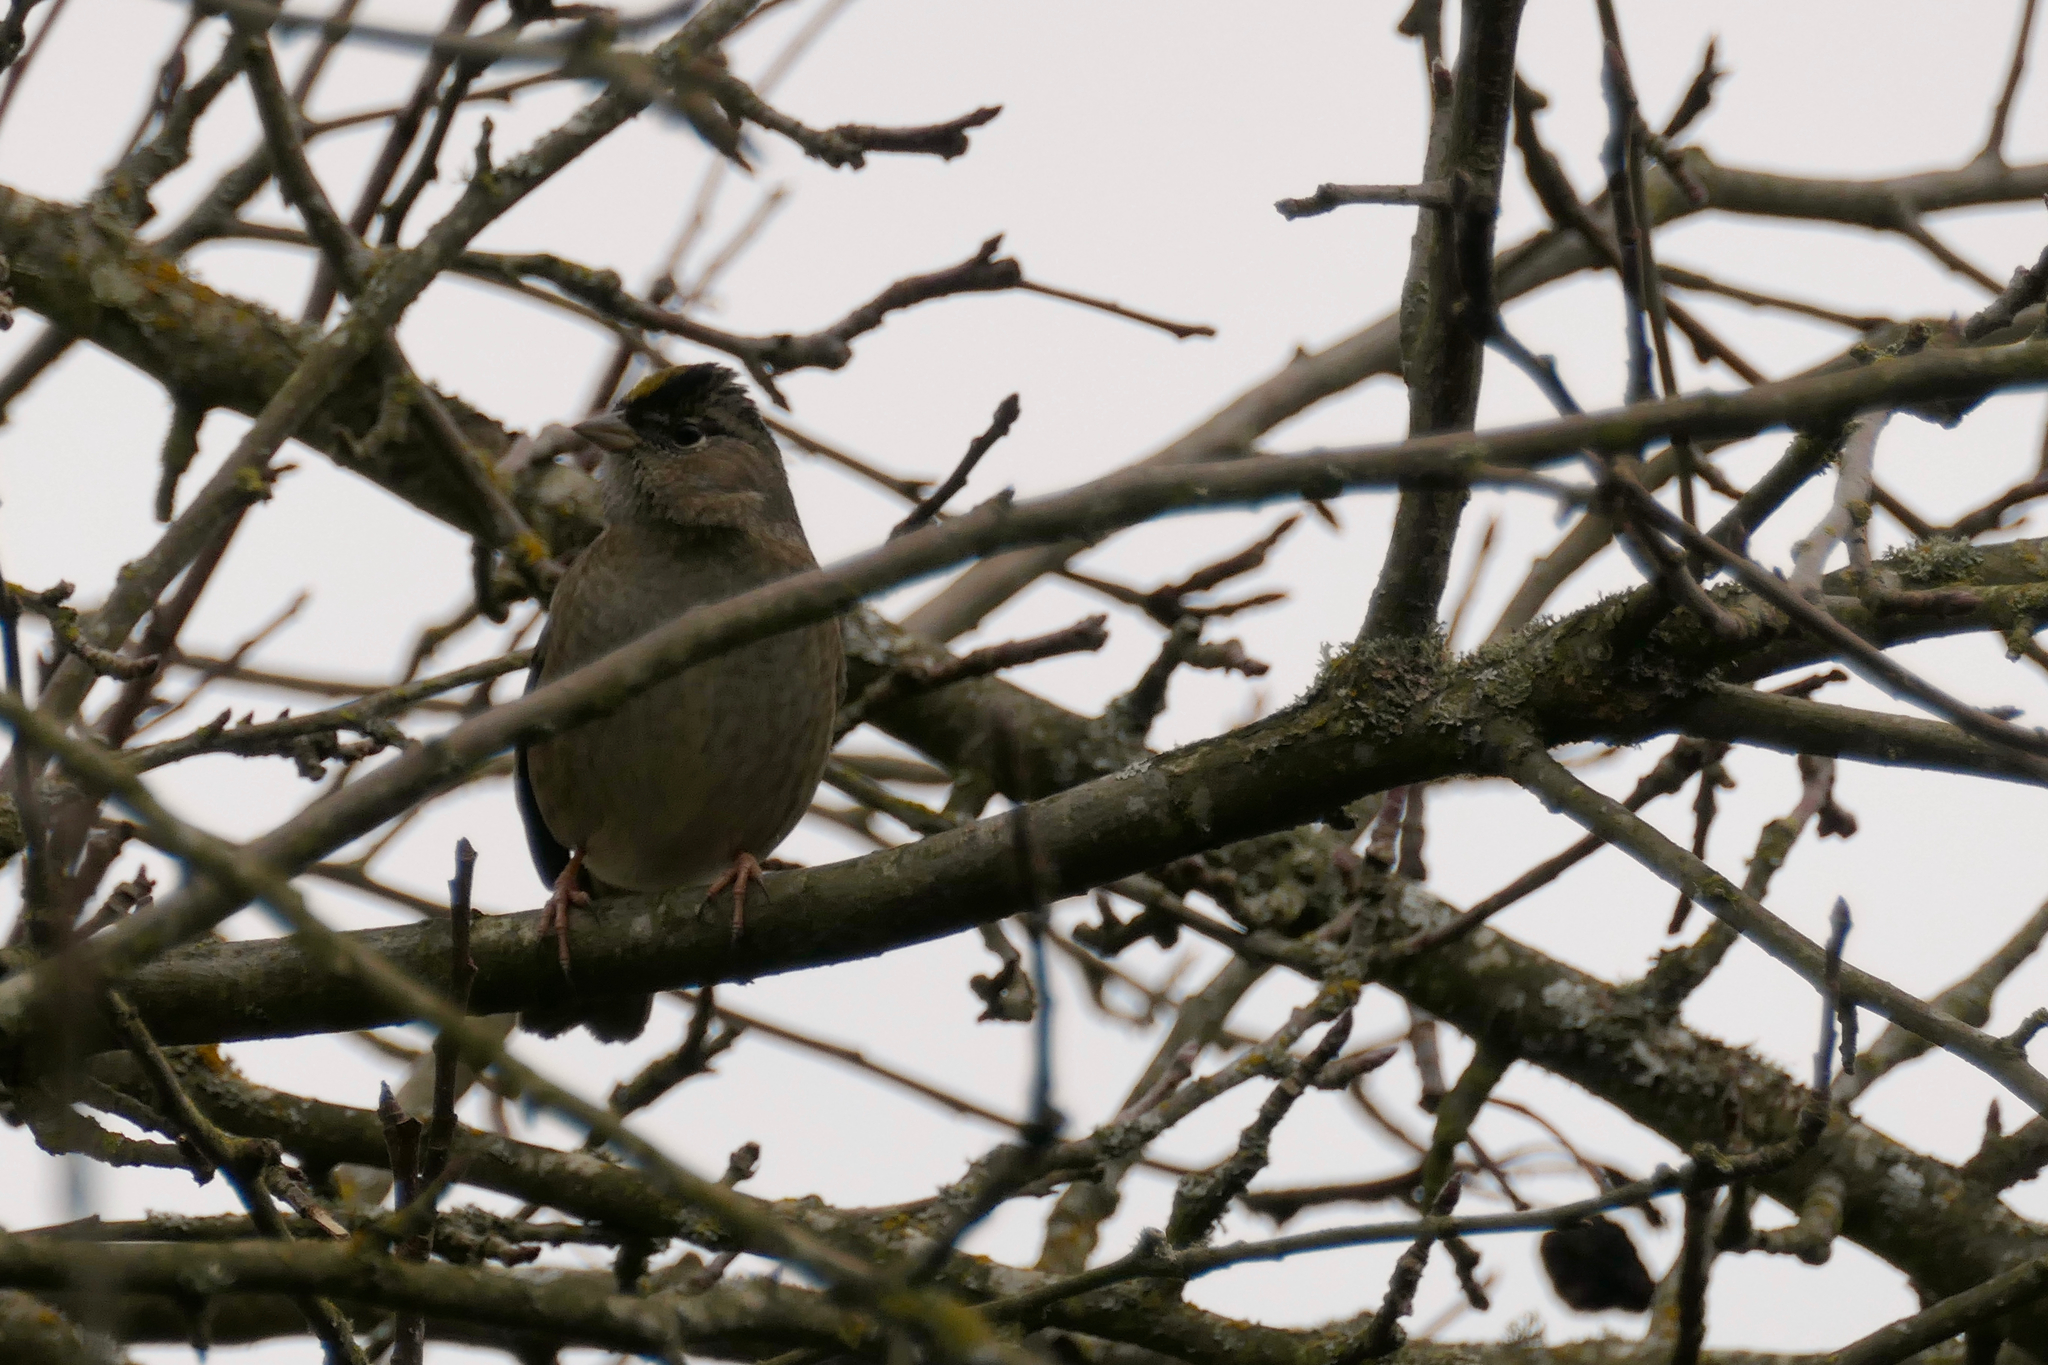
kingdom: Animalia
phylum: Chordata
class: Aves
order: Passeriformes
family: Passerellidae
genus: Zonotrichia
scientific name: Zonotrichia atricapilla
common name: Golden-crowned sparrow
